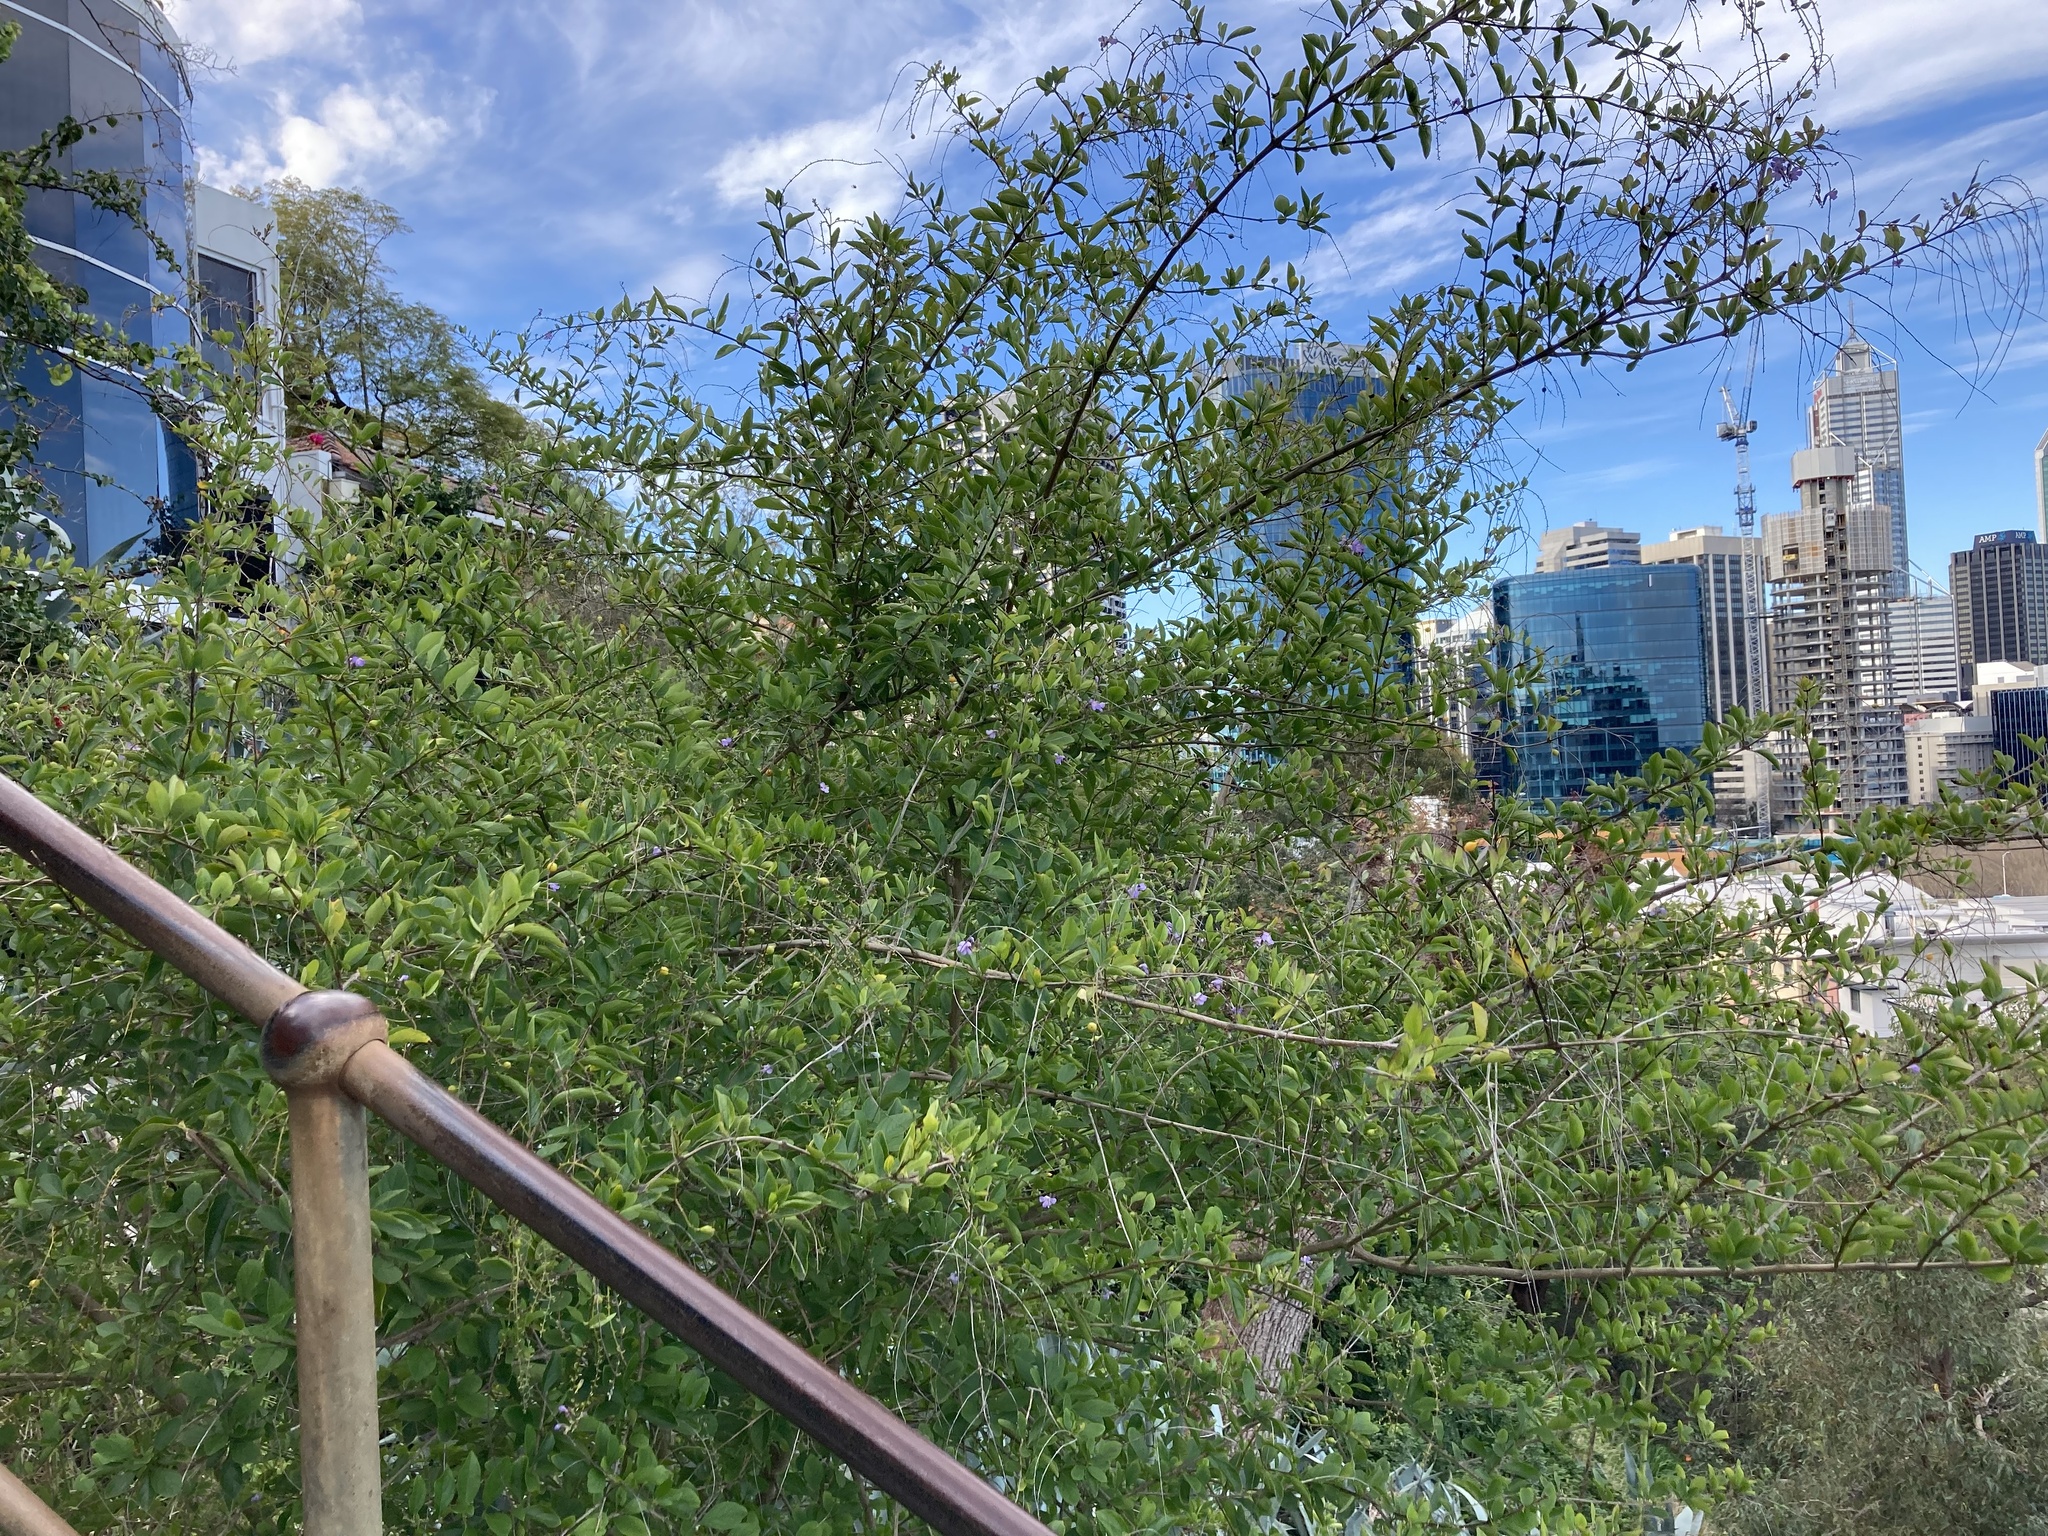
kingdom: Plantae
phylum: Tracheophyta
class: Magnoliopsida
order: Lamiales
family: Verbenaceae
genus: Duranta
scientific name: Duranta erecta
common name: Golden dewdrops
